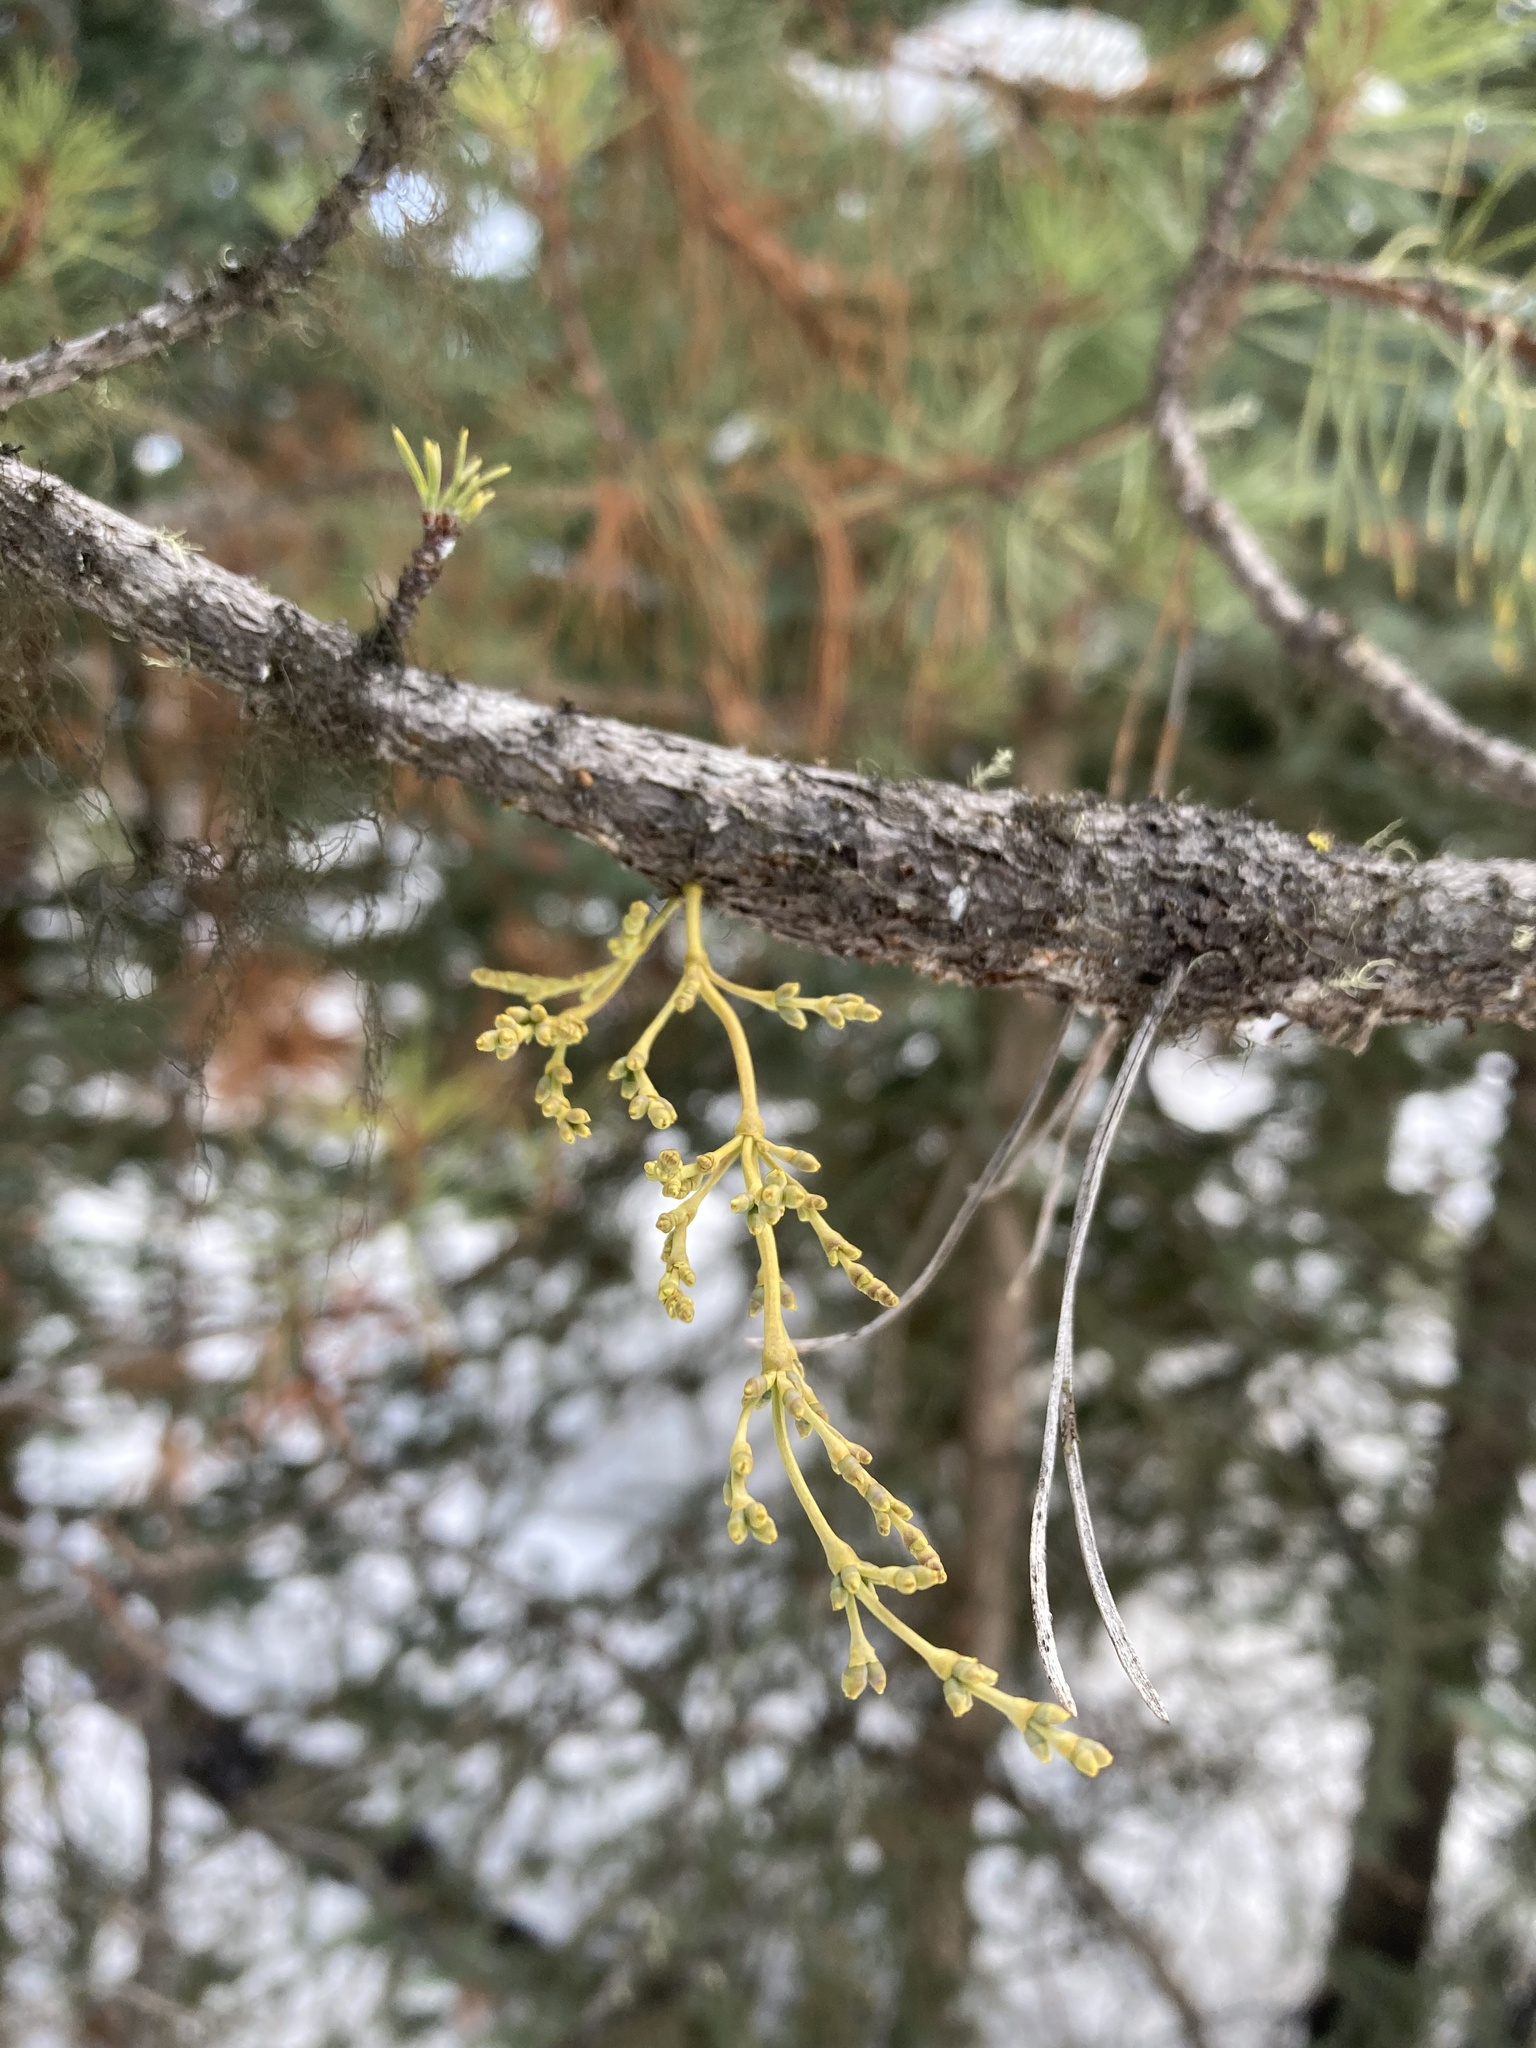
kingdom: Plantae
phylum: Tracheophyta
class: Magnoliopsida
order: Santalales
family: Viscaceae
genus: Arceuthobium
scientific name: Arceuthobium americanum
